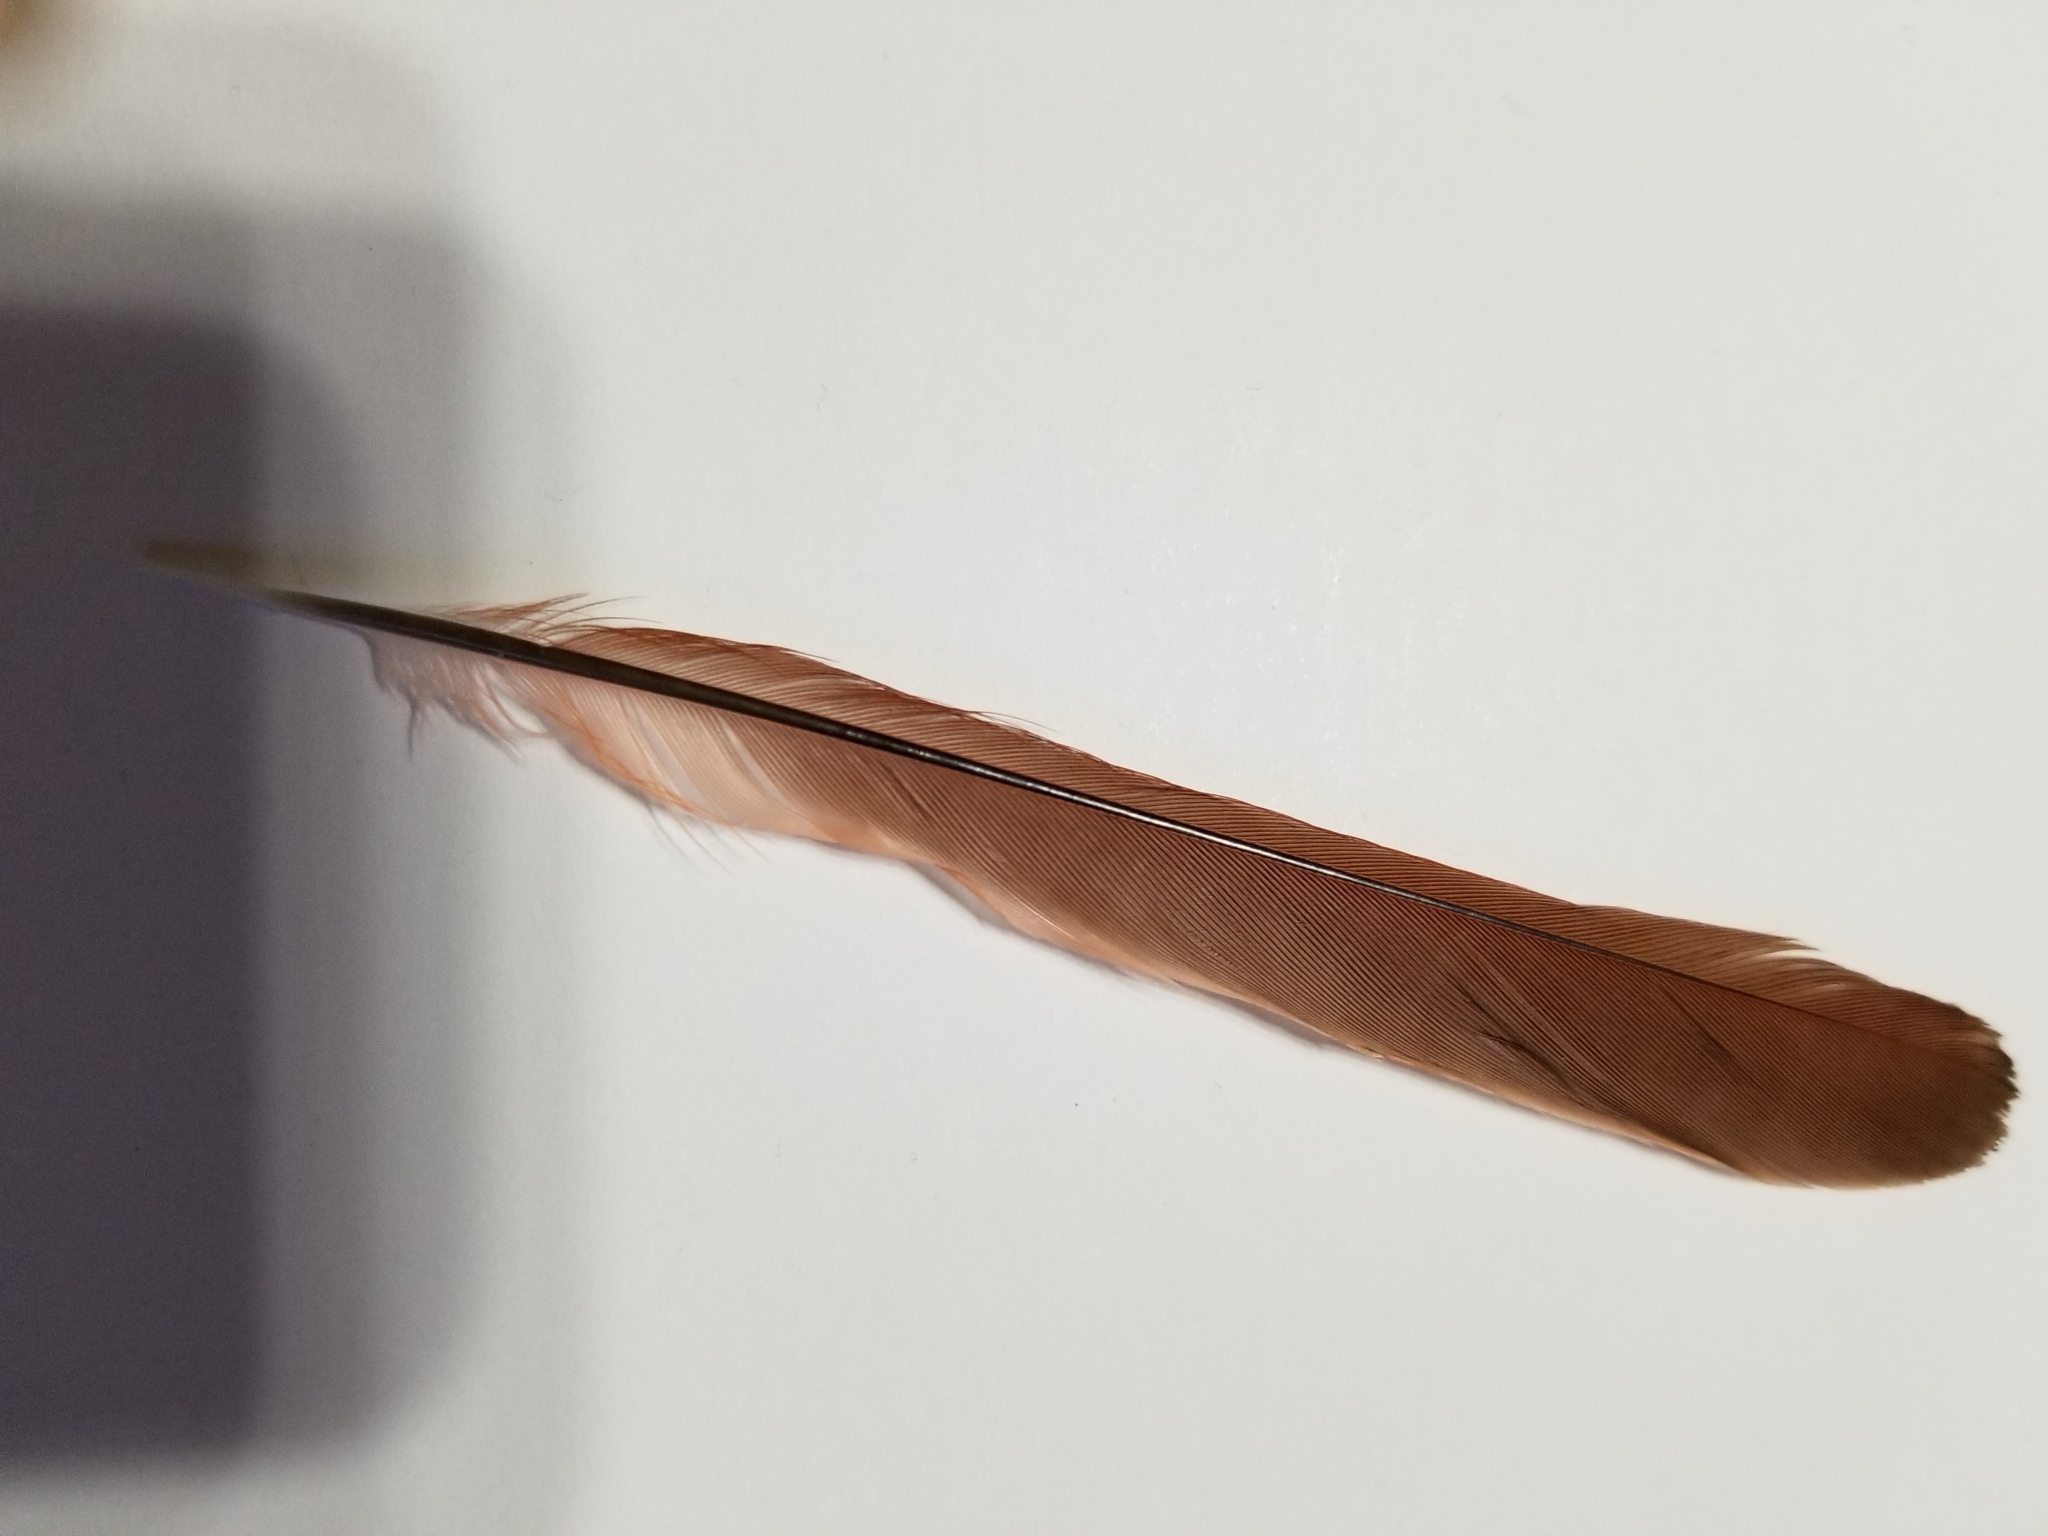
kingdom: Animalia
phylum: Chordata
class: Aves
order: Passeriformes
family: Cardinalidae
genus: Cardinalis
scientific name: Cardinalis cardinalis
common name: Northern cardinal
